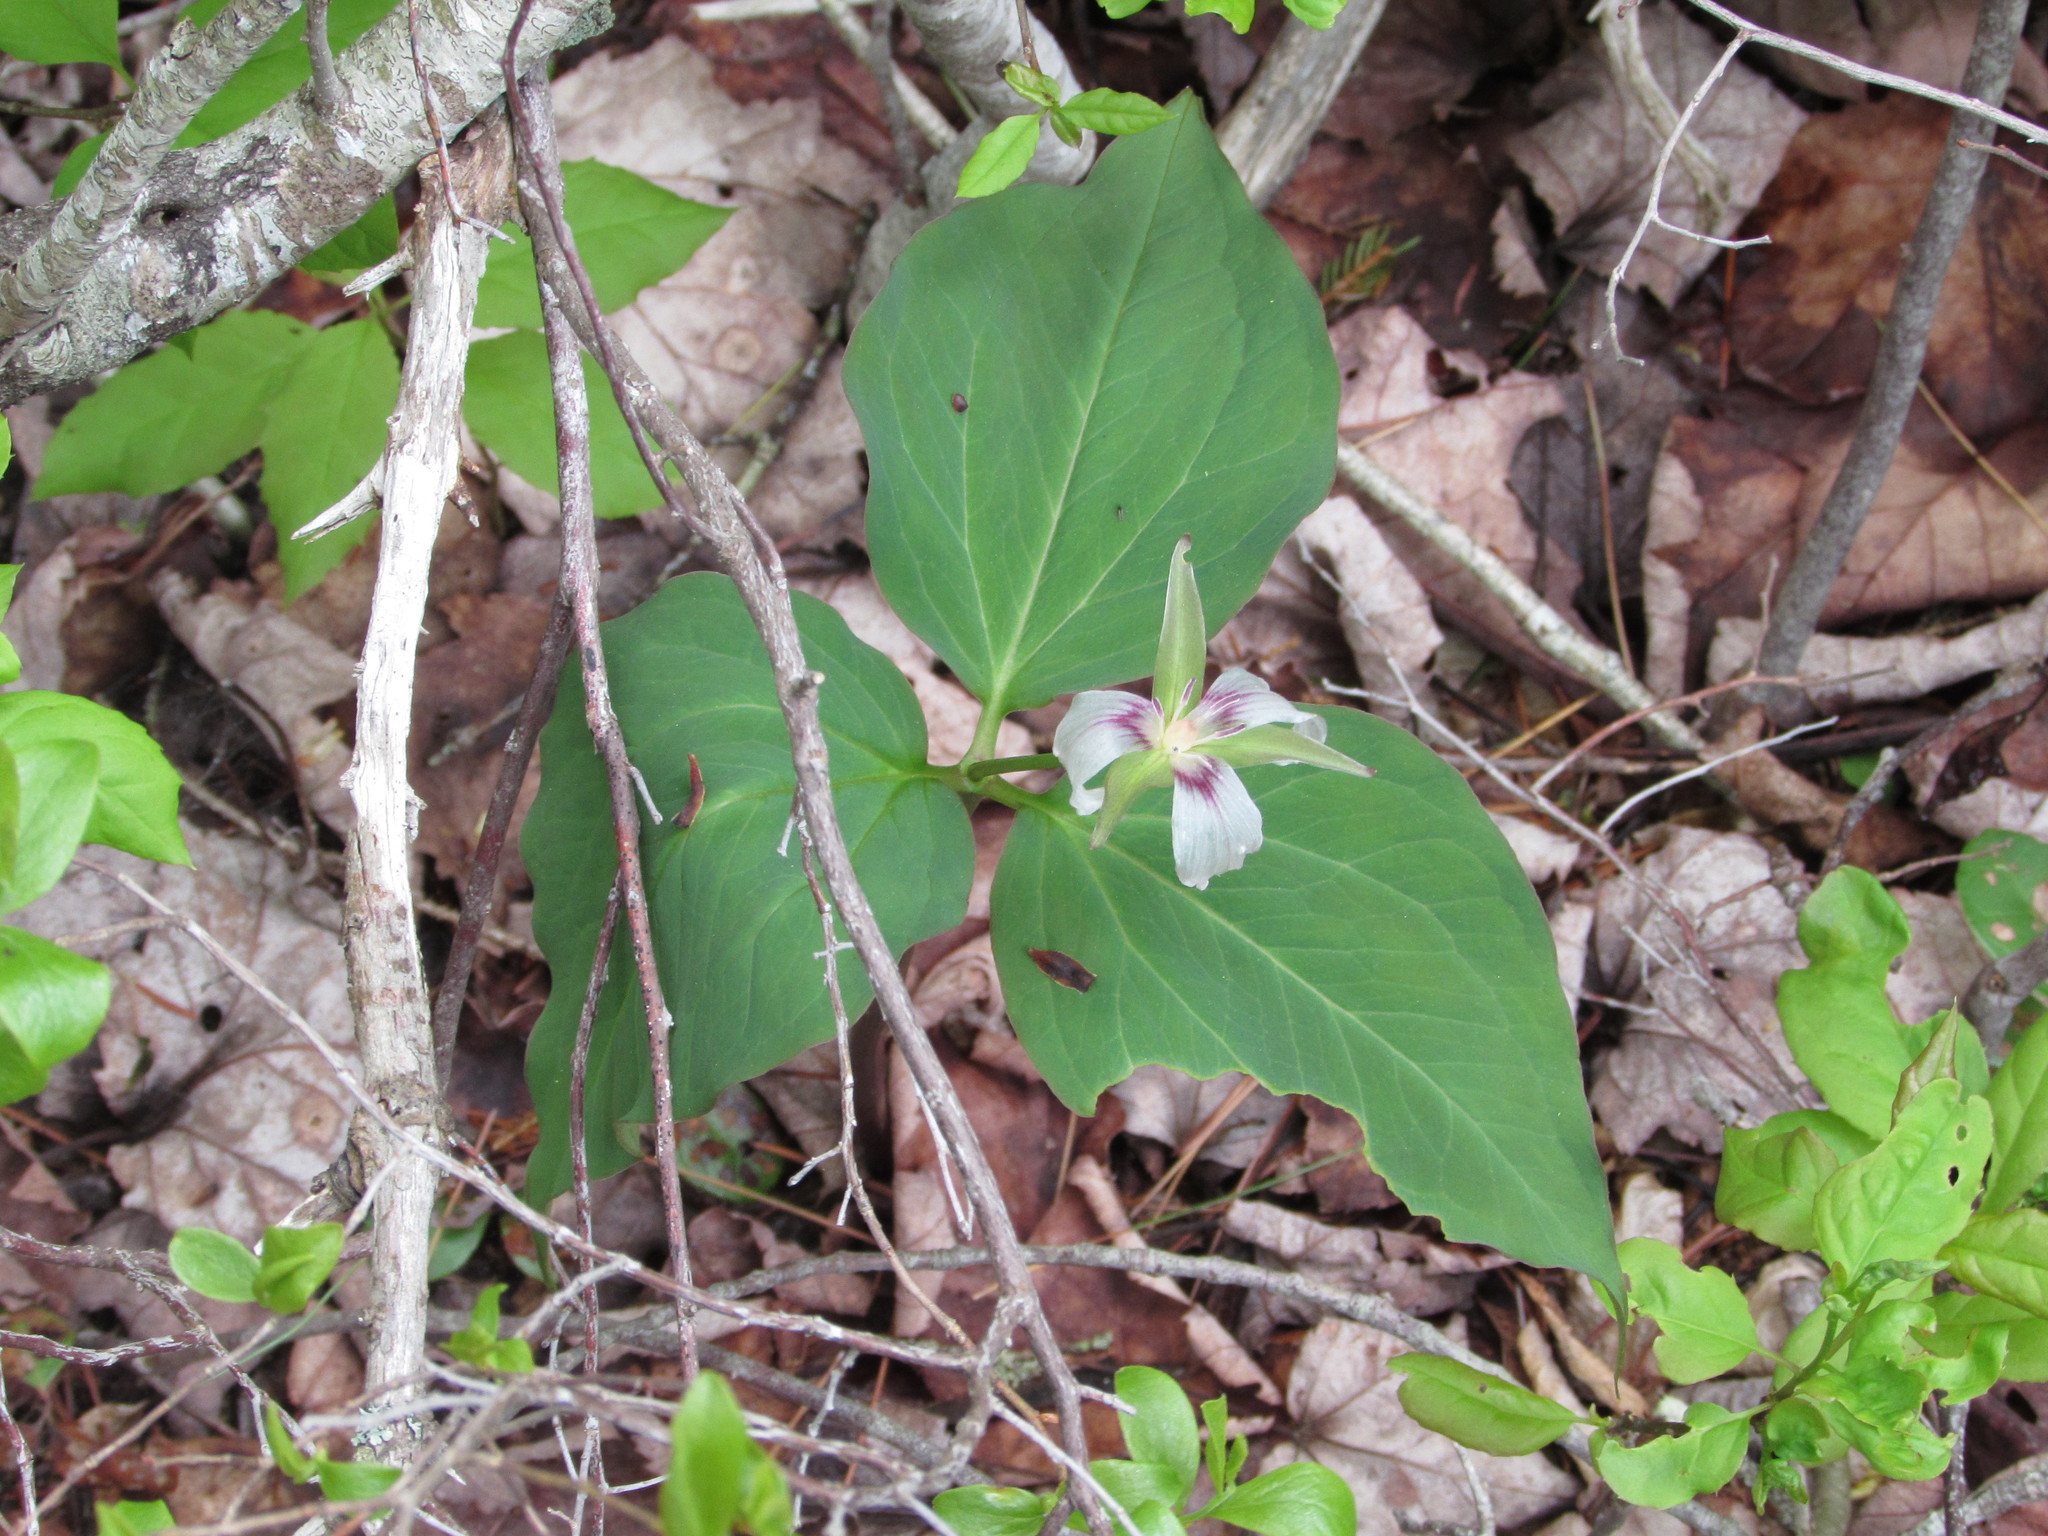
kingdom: Plantae
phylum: Tracheophyta
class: Liliopsida
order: Liliales
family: Melanthiaceae
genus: Trillium
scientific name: Trillium undulatum
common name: Paint trillium
